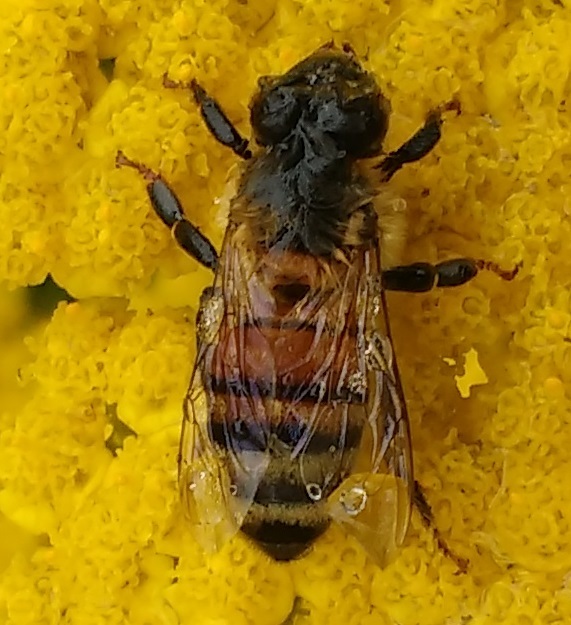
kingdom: Animalia
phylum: Arthropoda
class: Insecta
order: Hymenoptera
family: Apidae
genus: Apis
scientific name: Apis mellifera
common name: Honey bee
